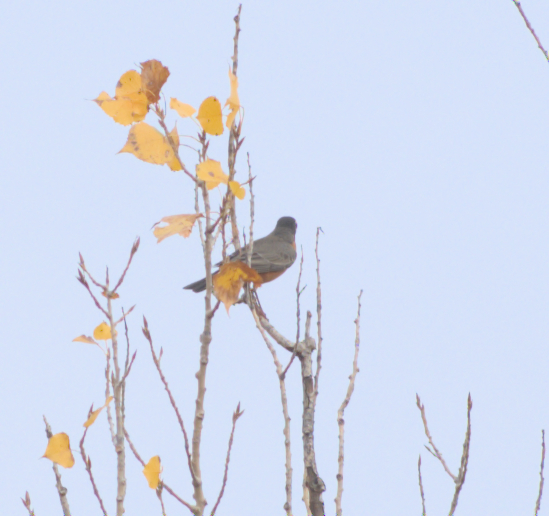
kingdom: Animalia
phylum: Chordata
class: Aves
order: Passeriformes
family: Turdidae
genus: Turdus
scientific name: Turdus migratorius
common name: American robin
